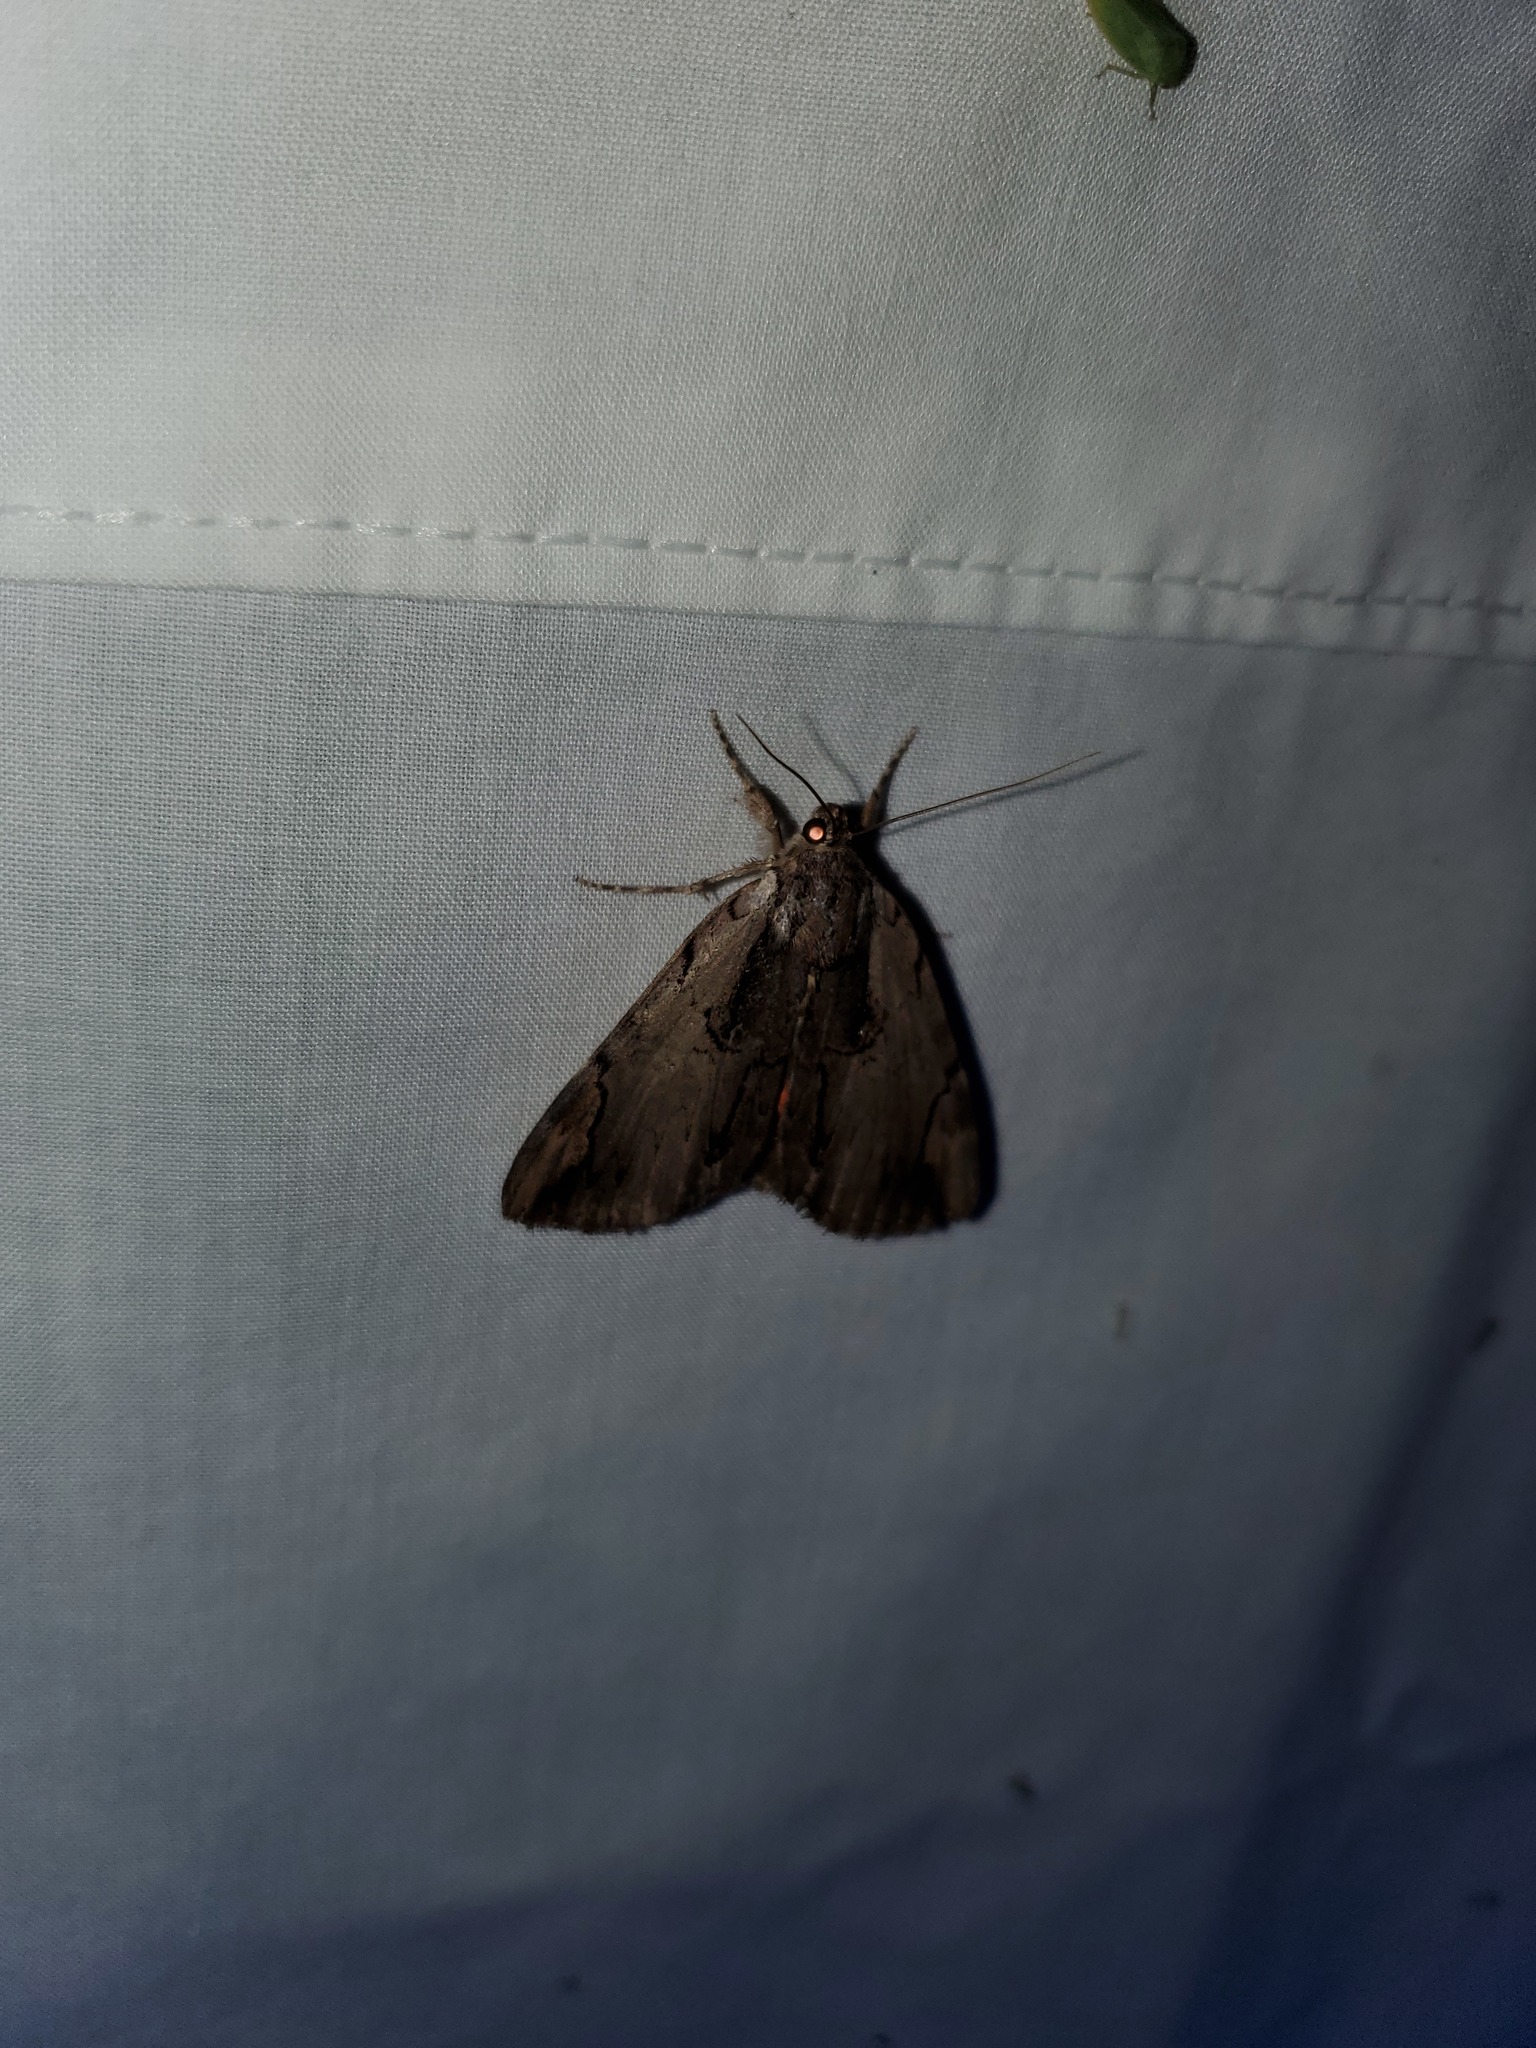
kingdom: Animalia
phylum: Arthropoda
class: Insecta
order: Lepidoptera
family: Erebidae
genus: Catocala
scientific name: Catocala ultronia
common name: Ultronia underwing
